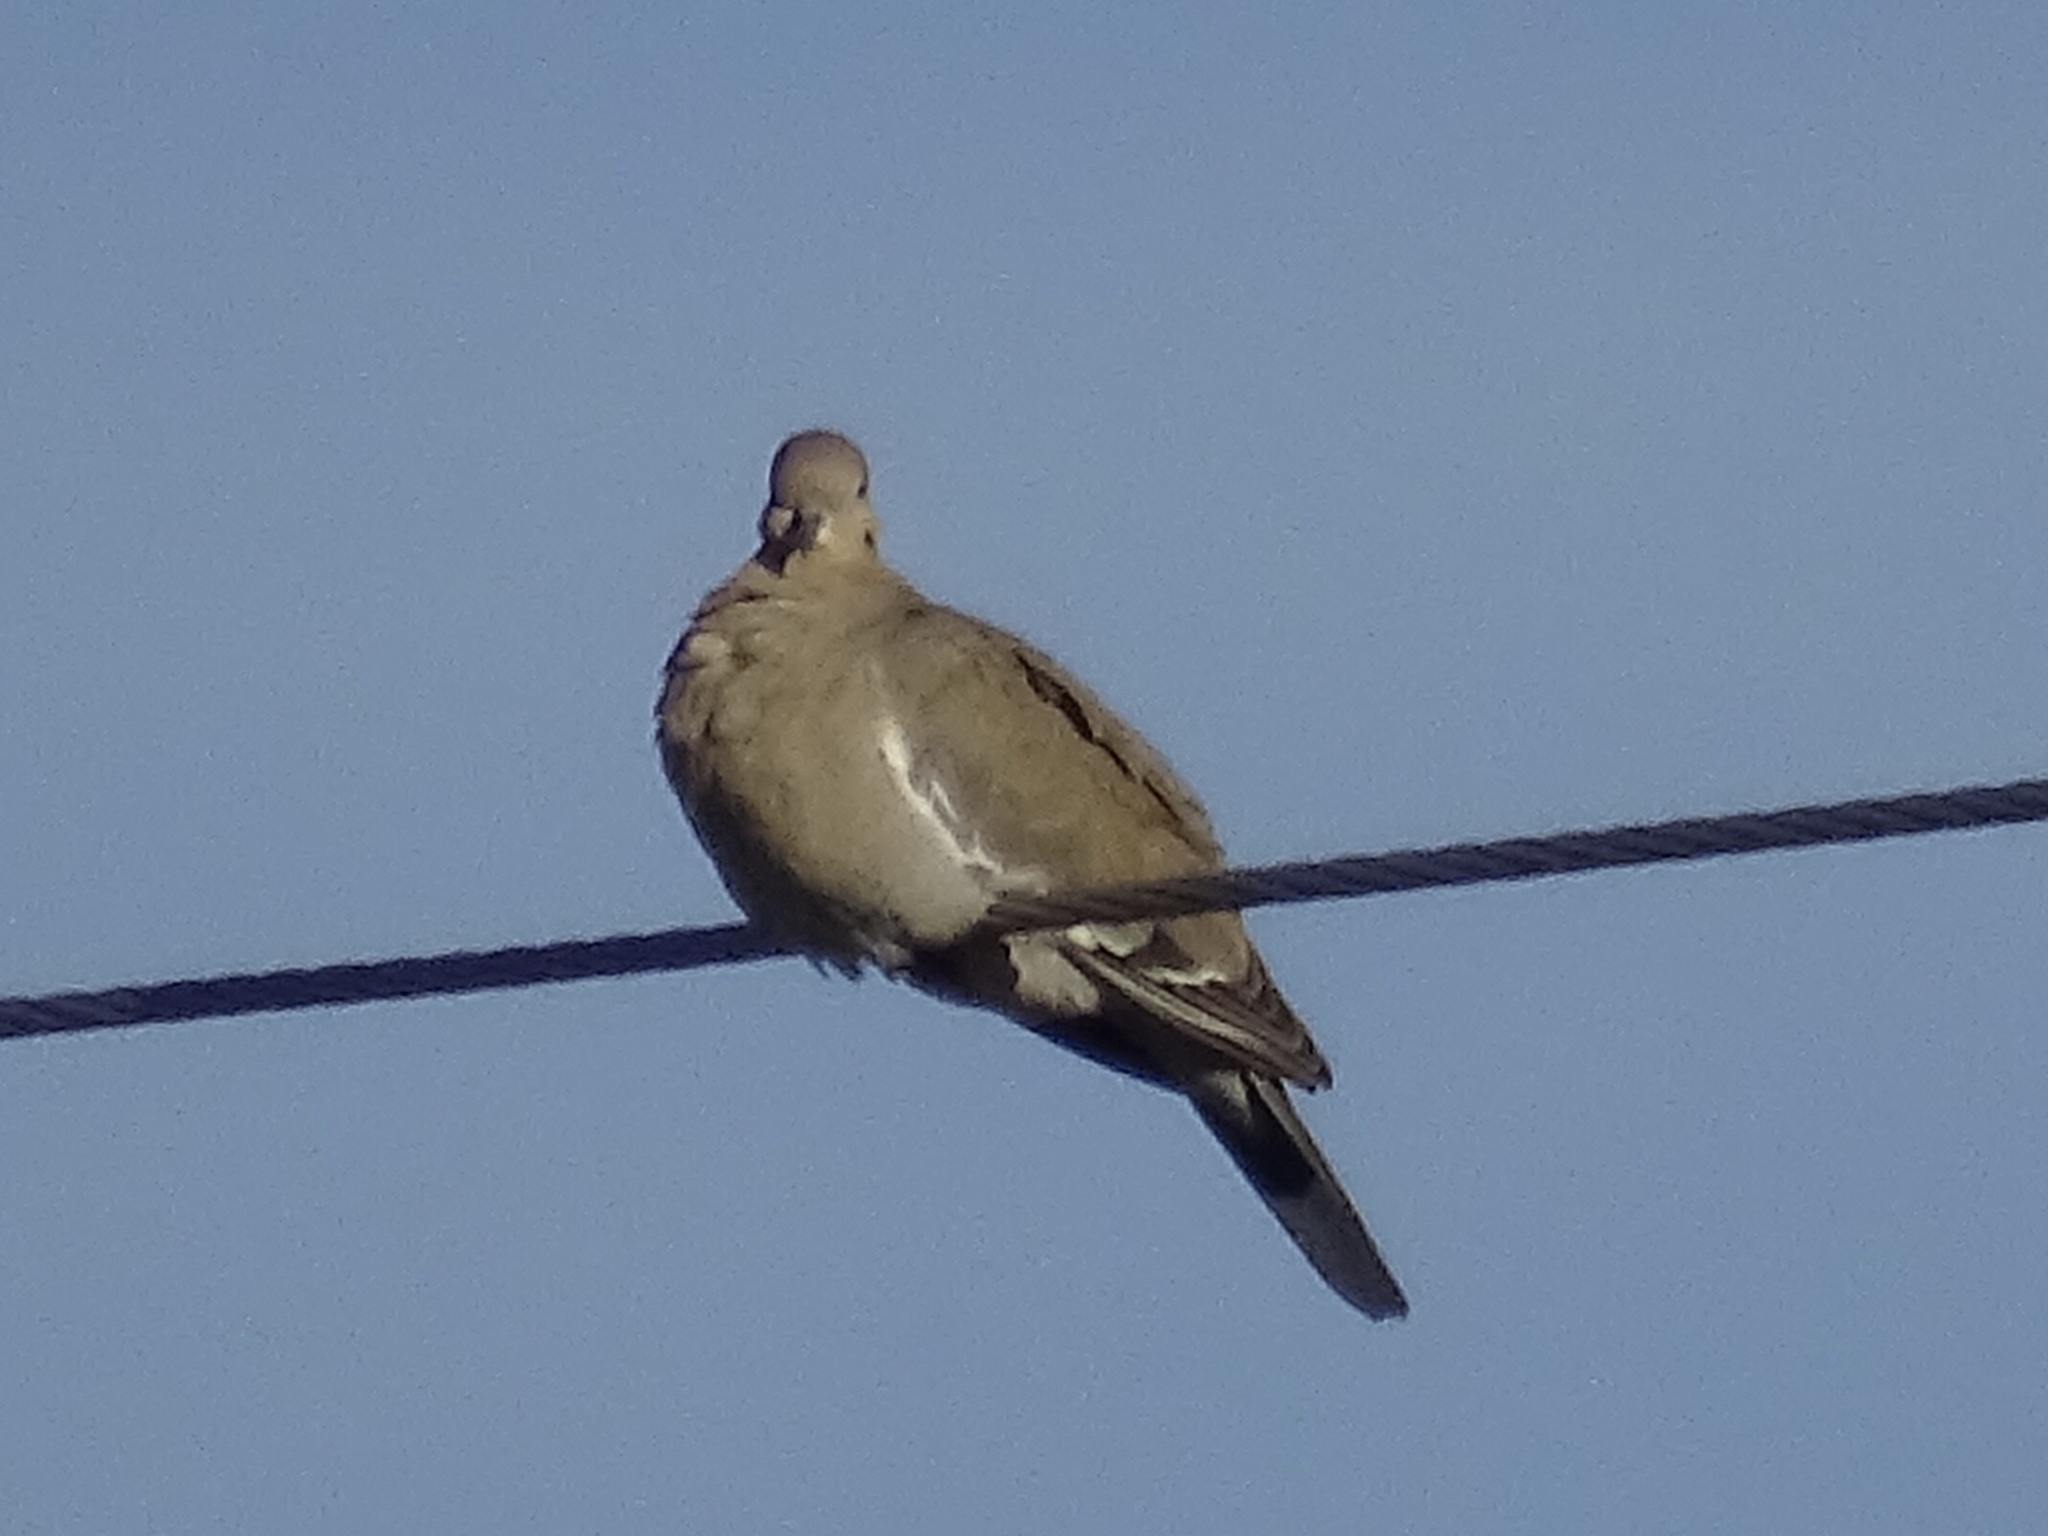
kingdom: Animalia
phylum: Chordata
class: Aves
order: Columbiformes
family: Columbidae
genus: Zenaida
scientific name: Zenaida asiatica
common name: White-winged dove
